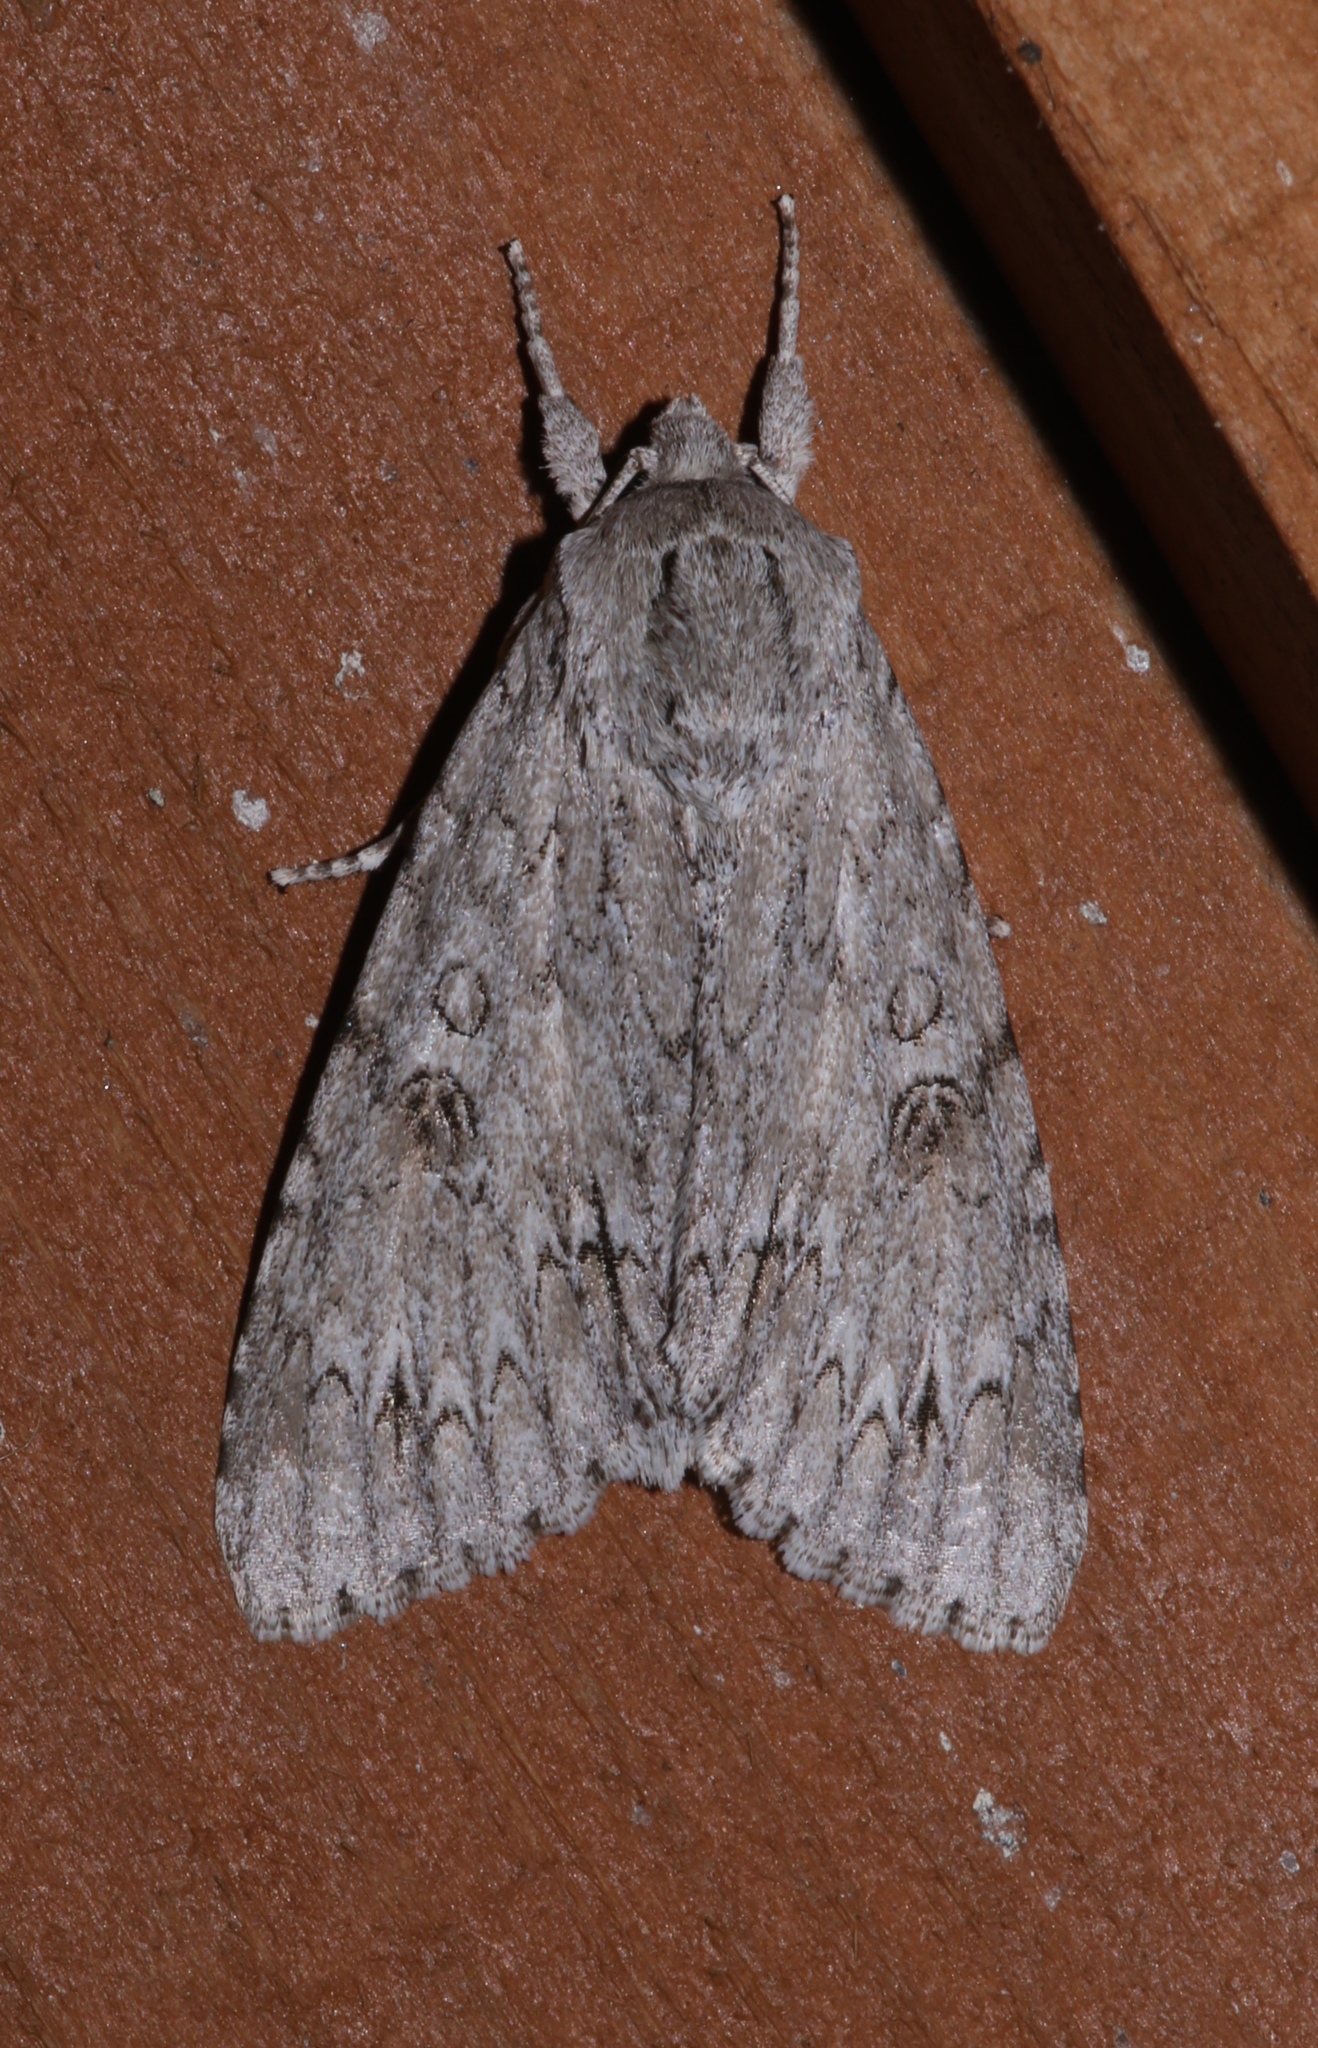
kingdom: Animalia
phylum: Arthropoda
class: Insecta
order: Lepidoptera
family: Noctuidae
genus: Acronicta
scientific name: Acronicta americana
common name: American dagger
